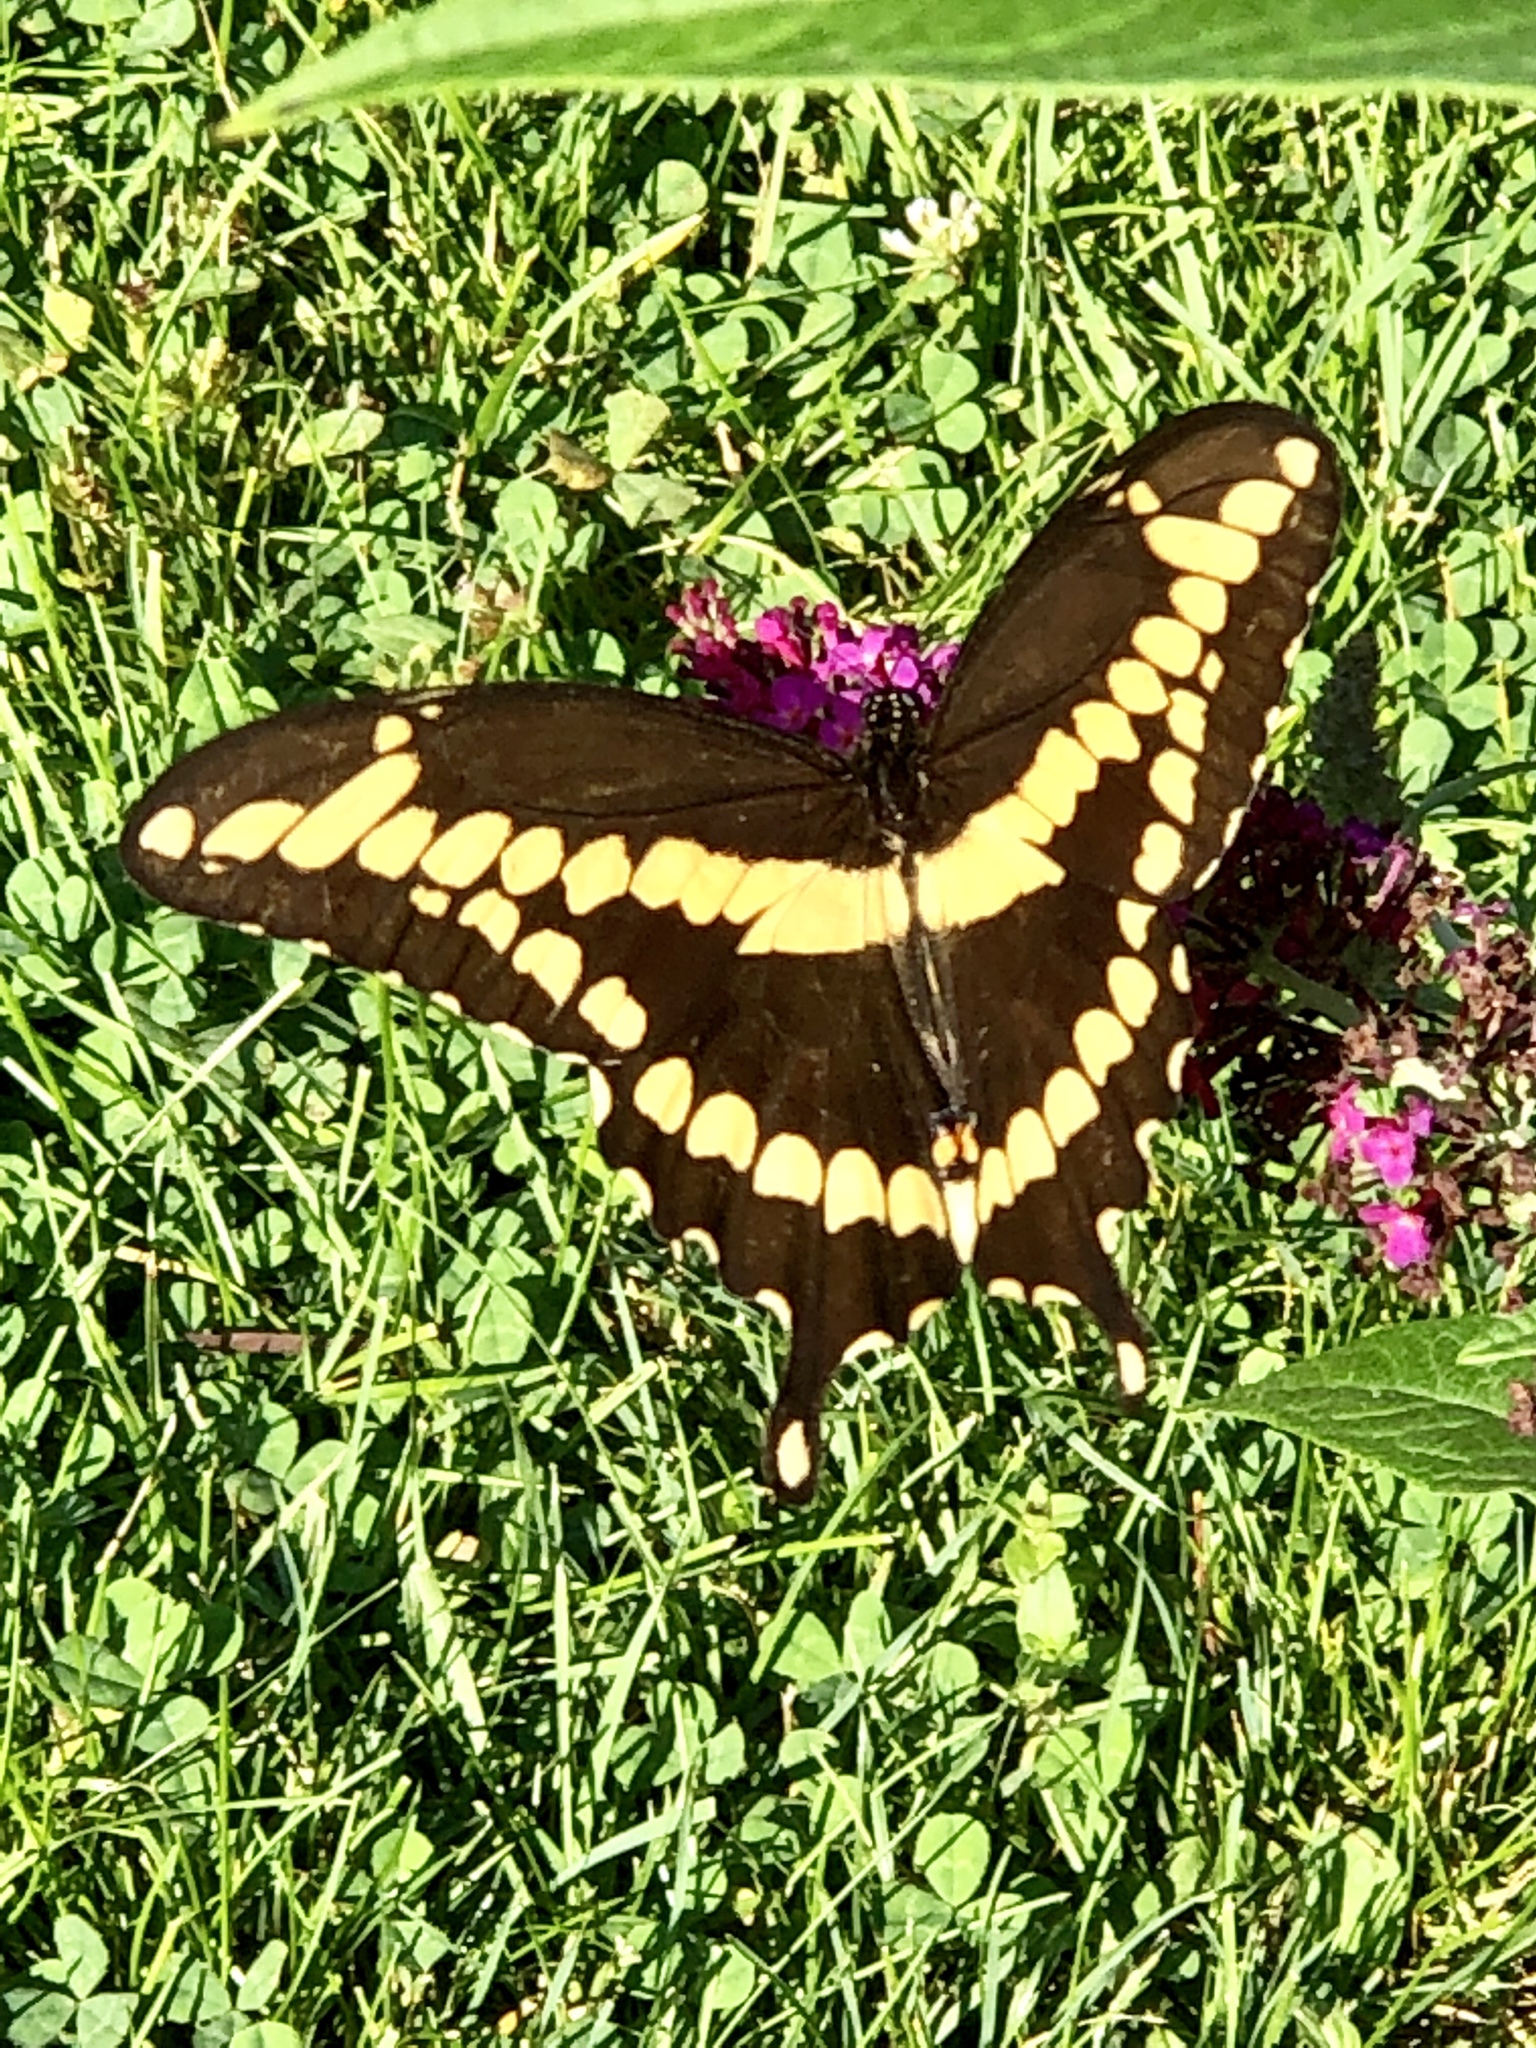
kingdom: Animalia
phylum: Arthropoda
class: Insecta
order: Lepidoptera
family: Papilionidae
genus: Papilio
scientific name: Papilio cresphontes
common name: Giant swallowtail
